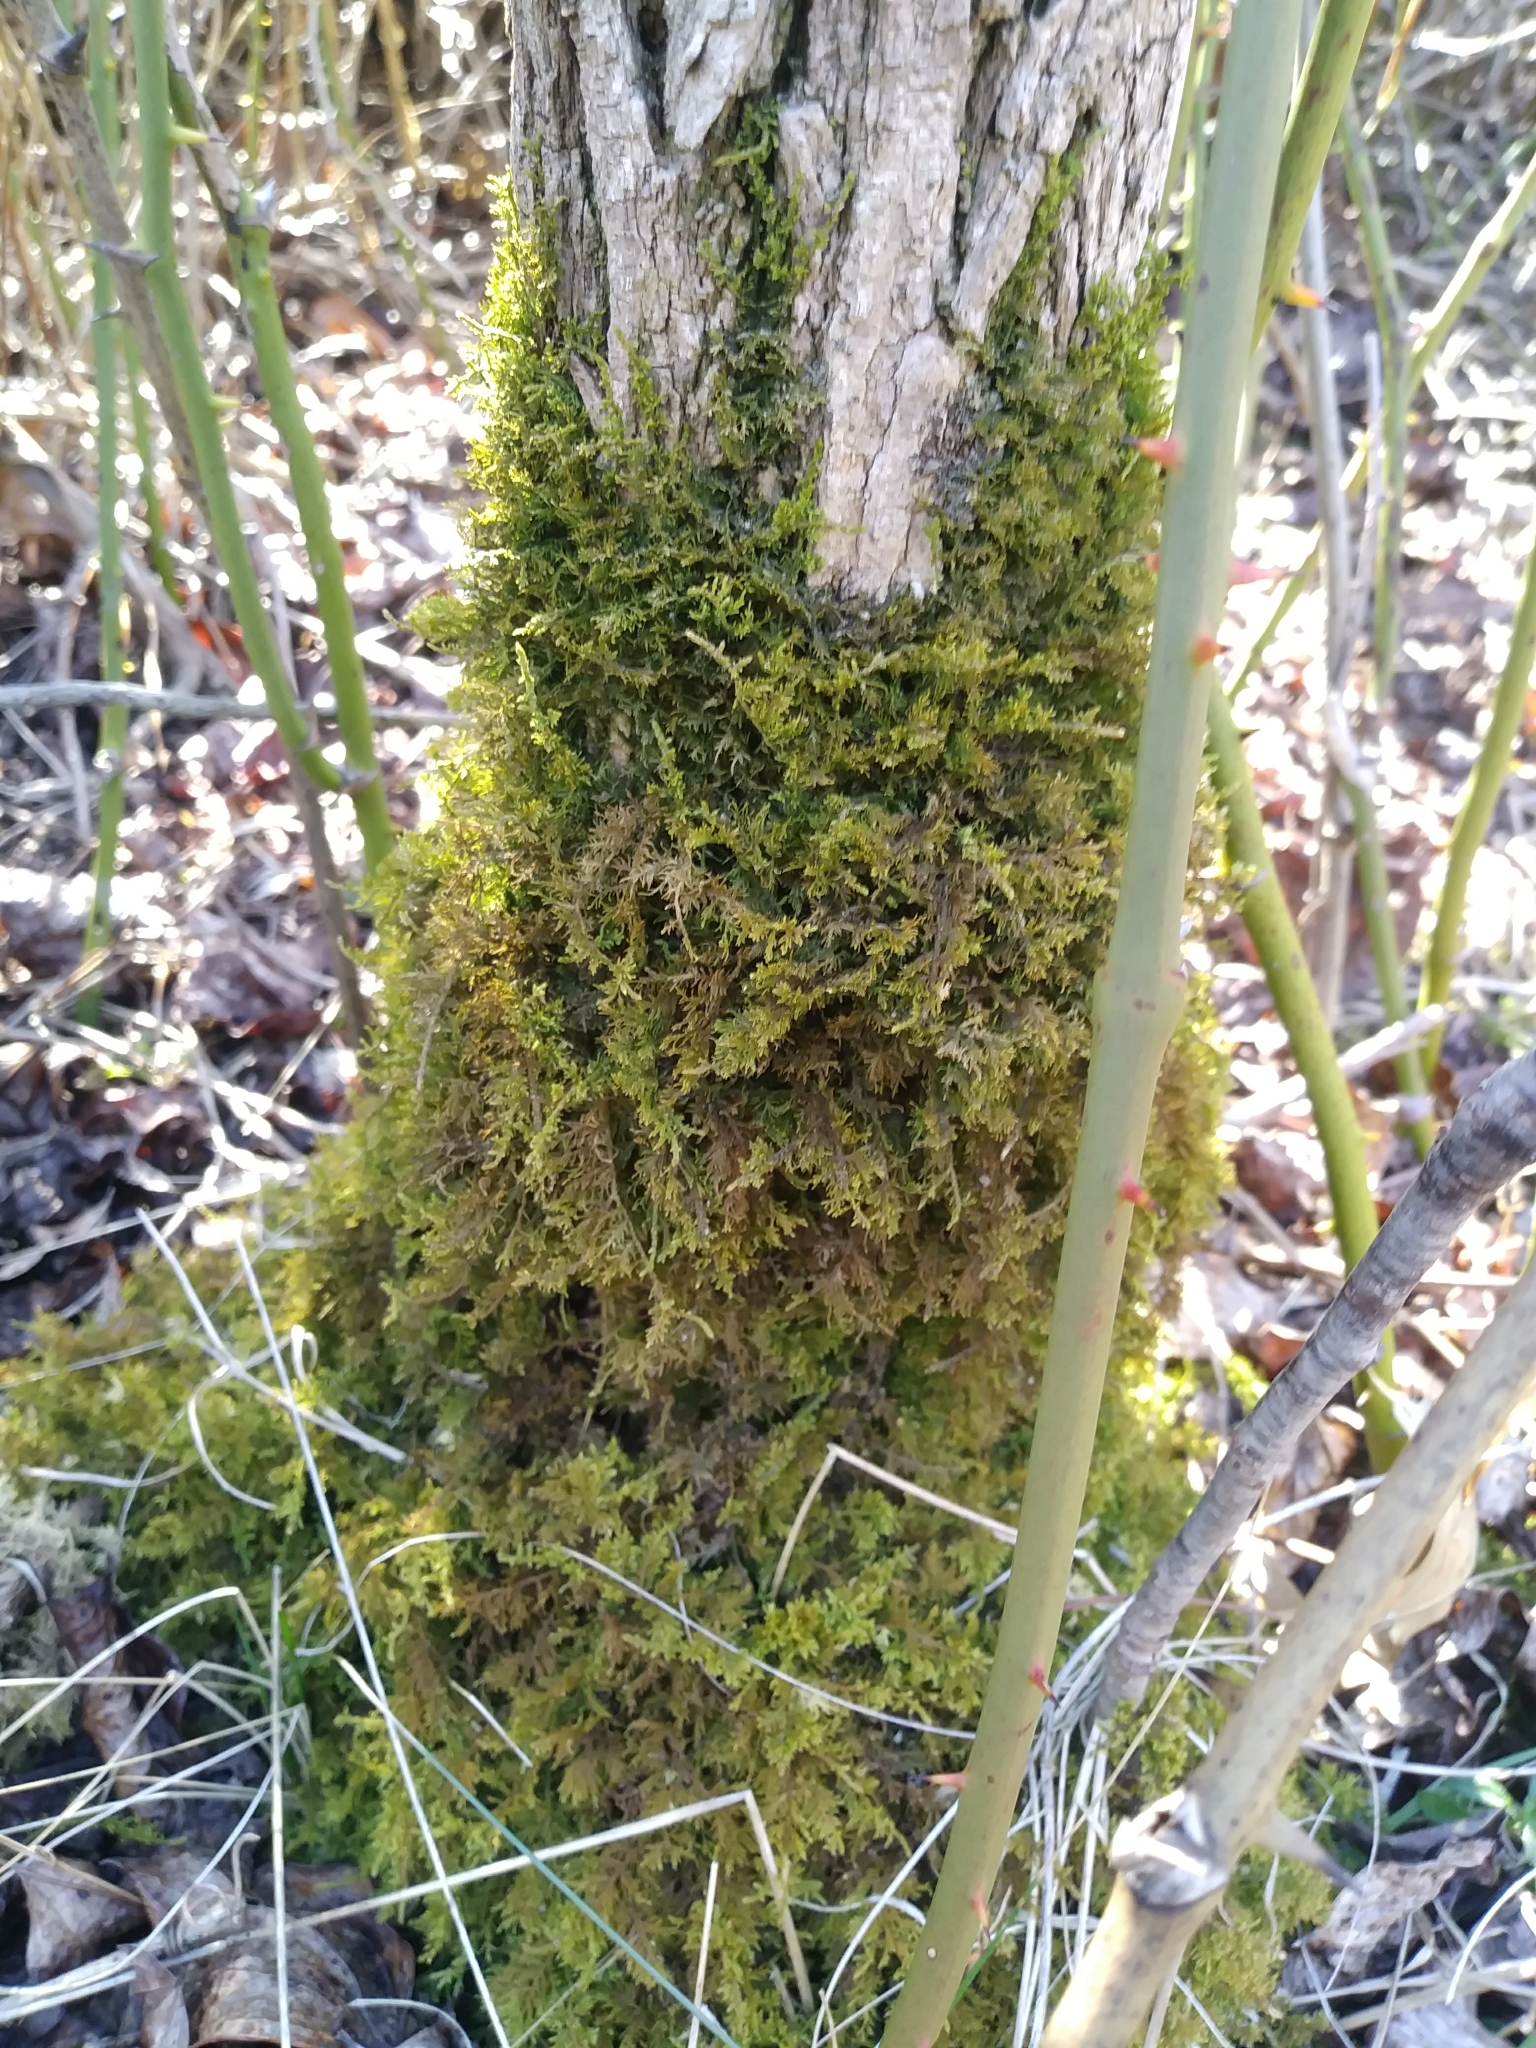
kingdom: Plantae
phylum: Bryophyta
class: Bryopsida
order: Hypnales
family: Thuidiaceae
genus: Thuidium
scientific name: Thuidium delicatulum
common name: Delicate fern moss
